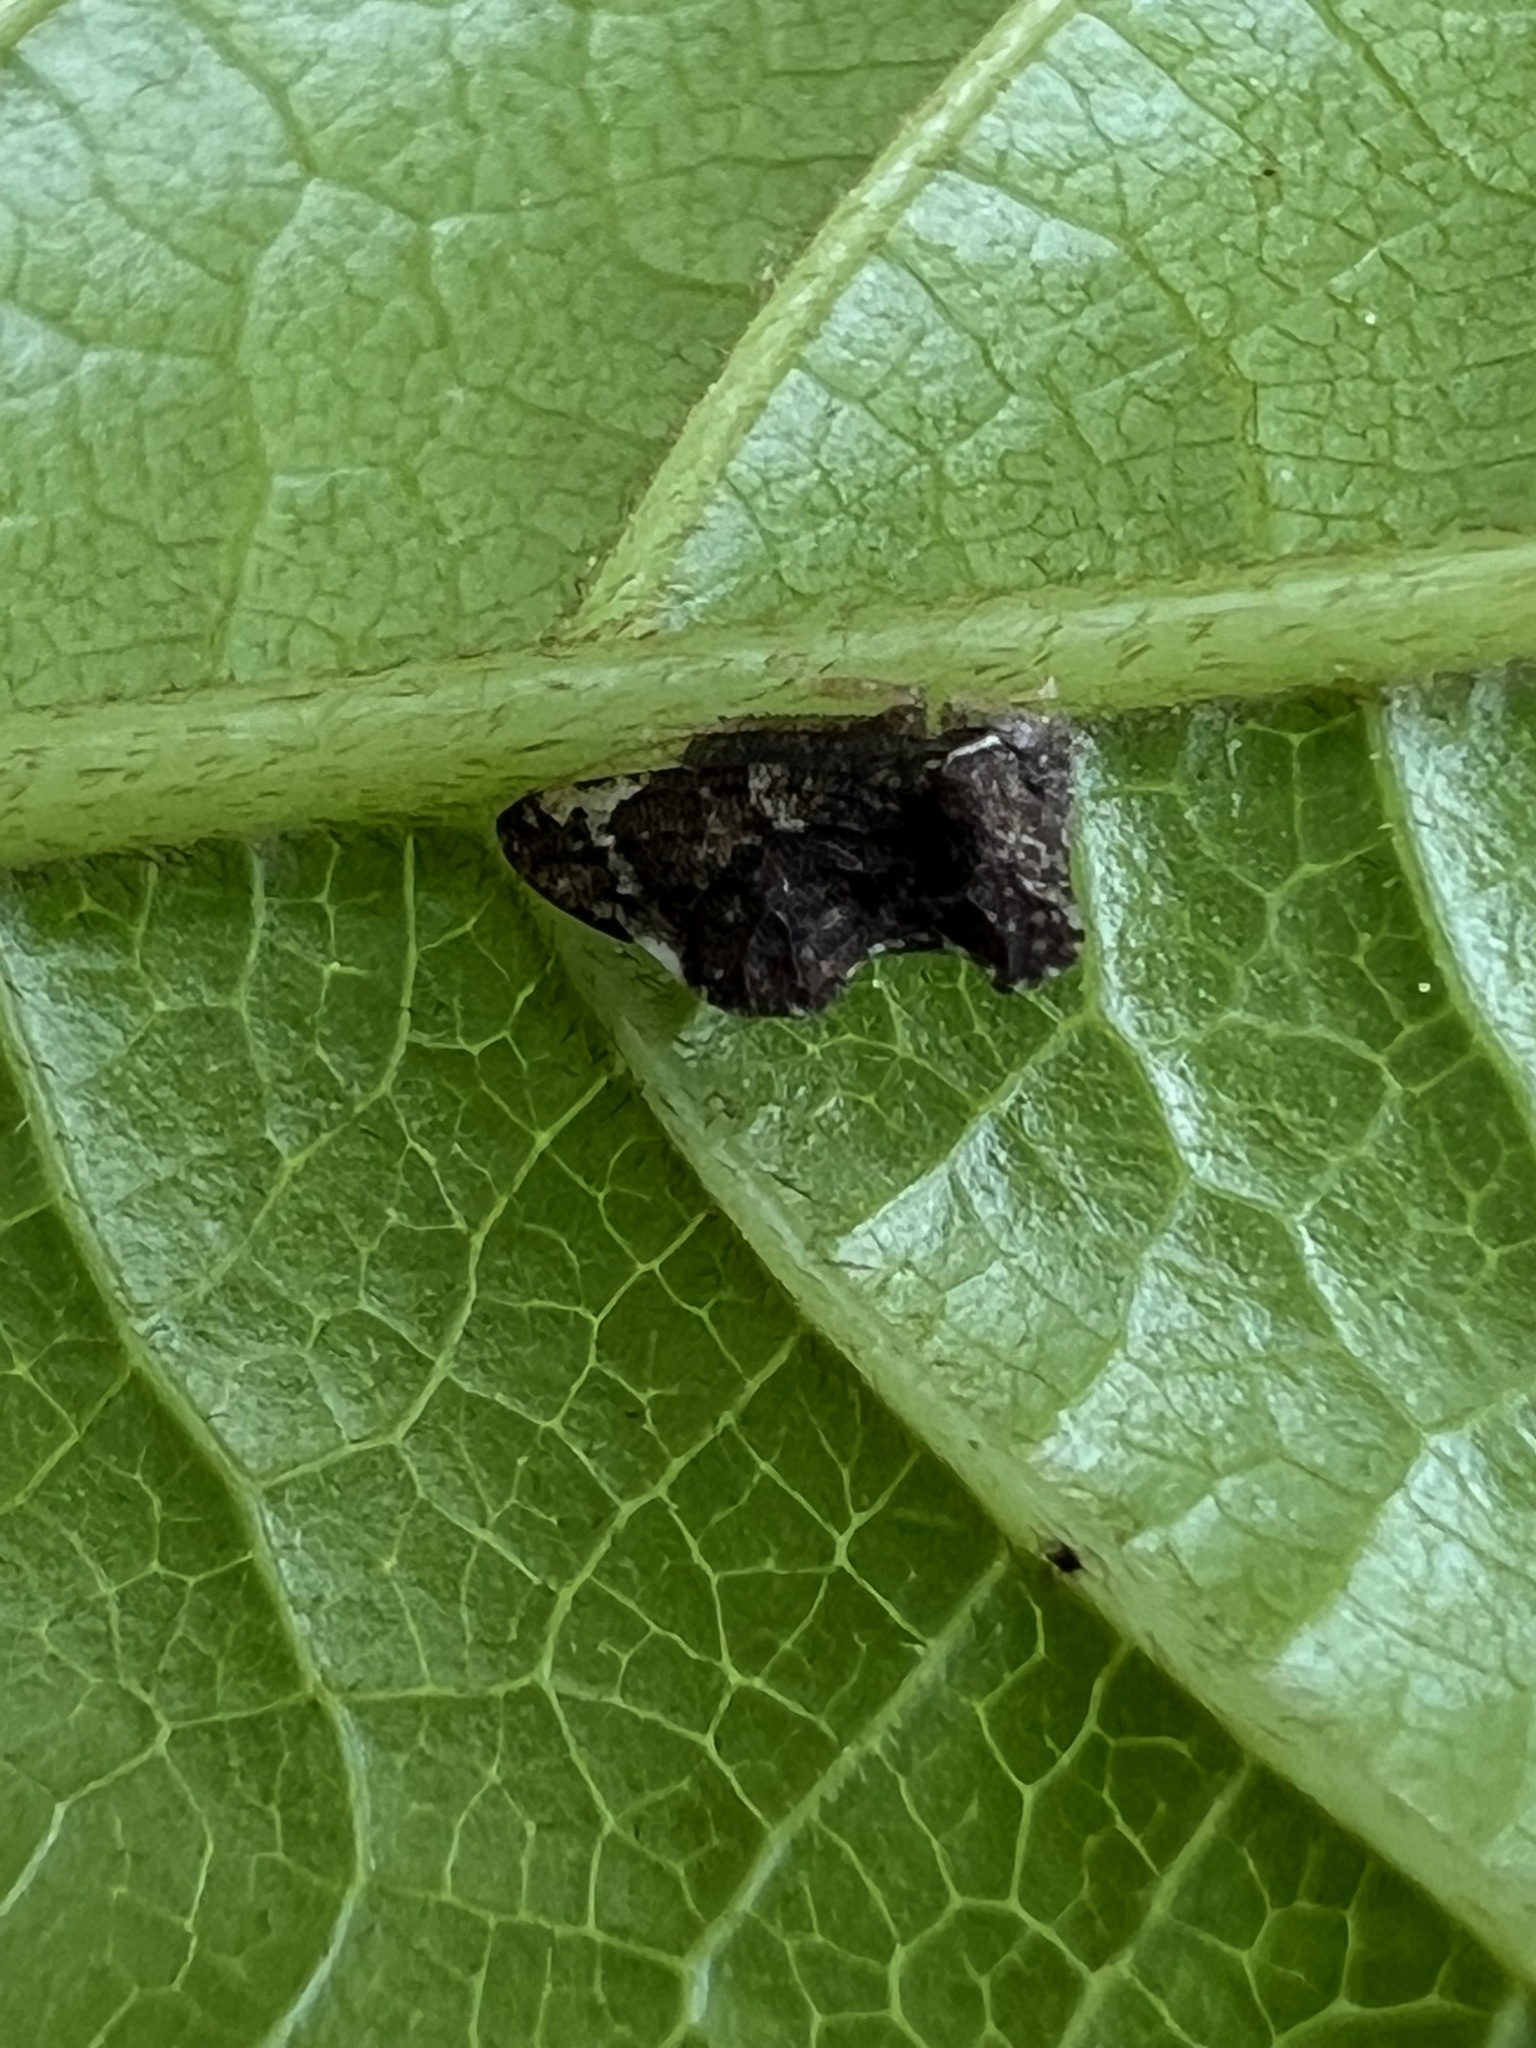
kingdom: Animalia
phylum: Arthropoda
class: Insecta
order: Hemiptera
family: Membracidae
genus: Entylia
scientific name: Entylia carinata
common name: Keeled treehopper
